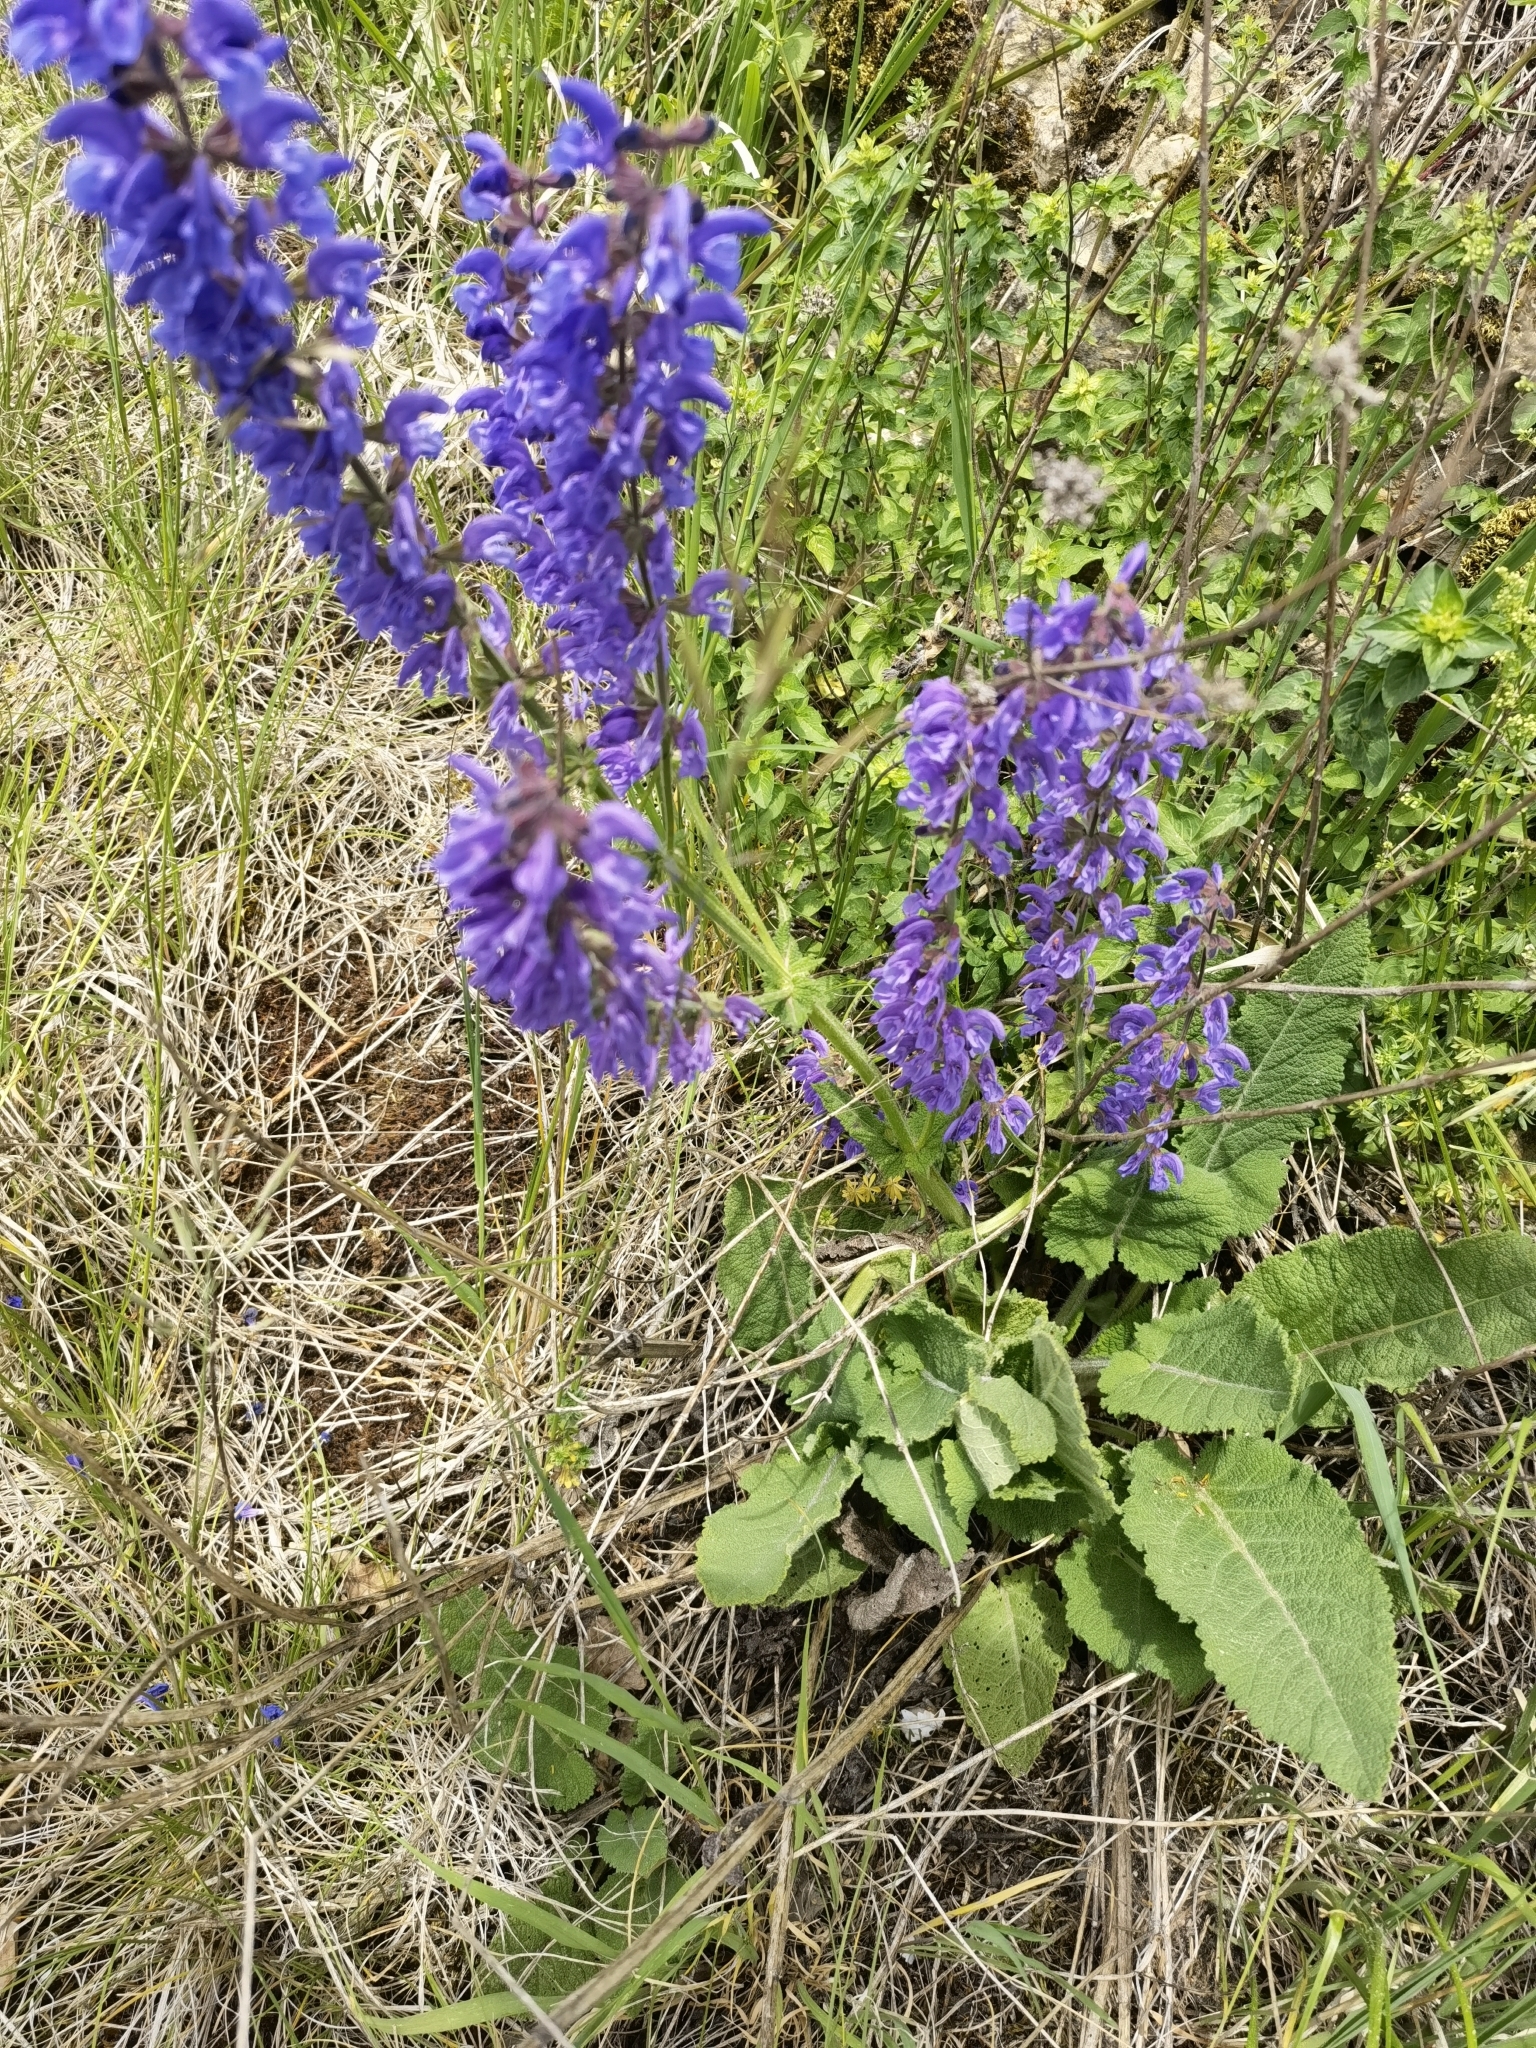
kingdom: Plantae
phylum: Tracheophyta
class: Magnoliopsida
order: Lamiales
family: Lamiaceae
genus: Salvia
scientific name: Salvia pratensis
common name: Meadow sage
